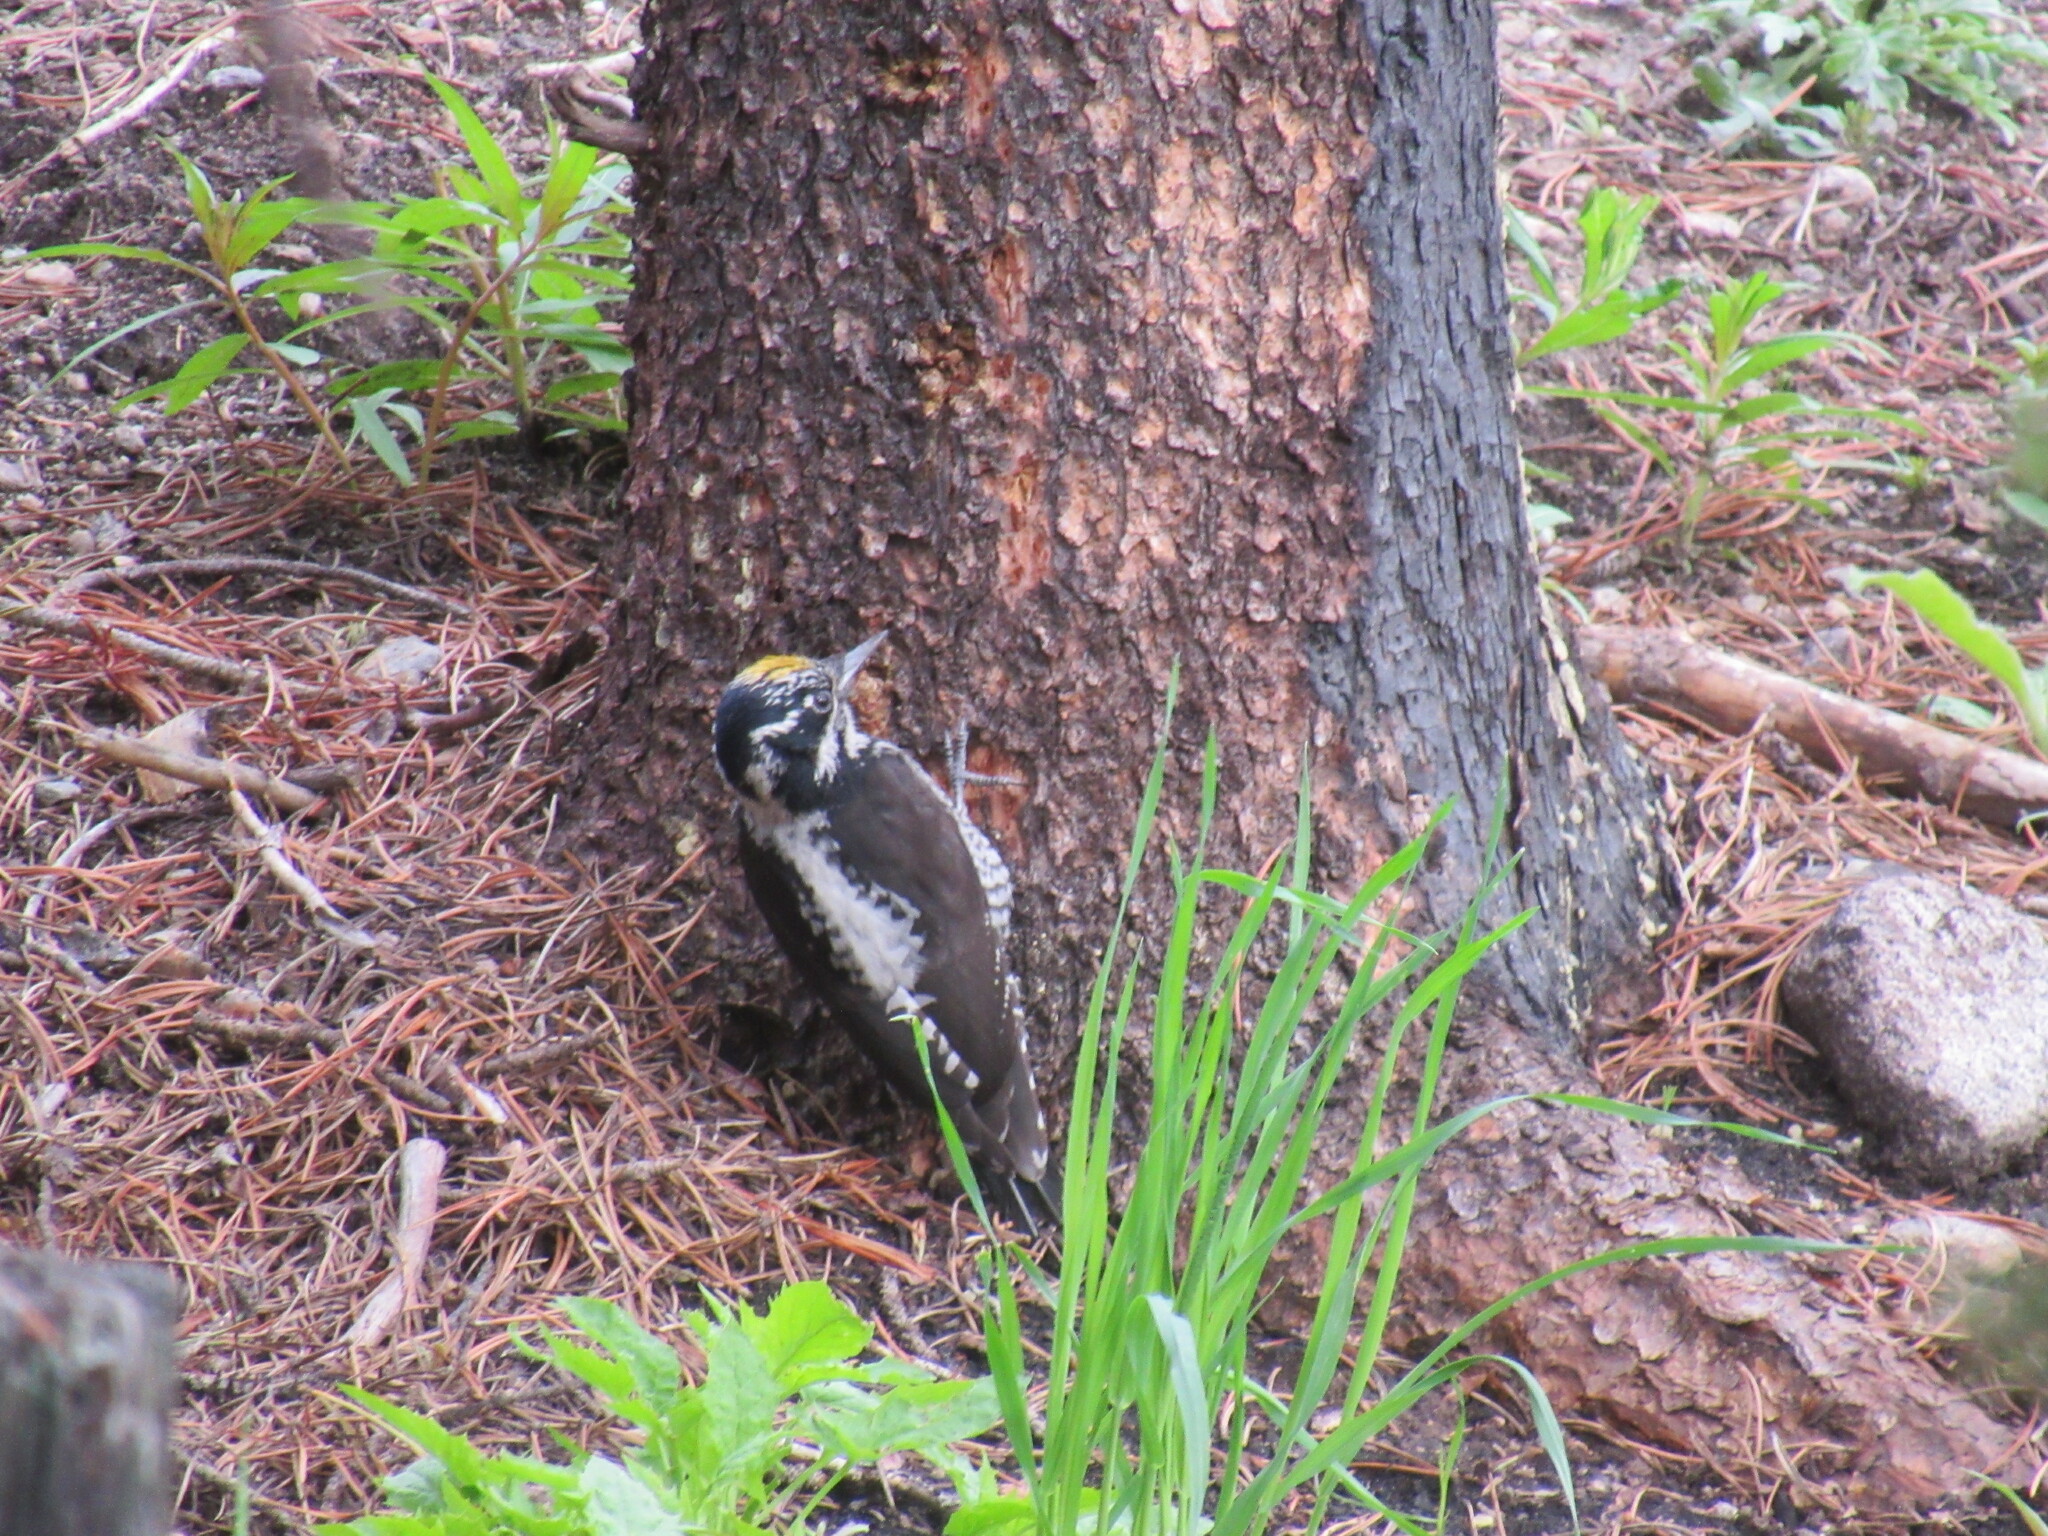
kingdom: Animalia
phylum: Chordata
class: Aves
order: Piciformes
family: Picidae
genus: Picoides
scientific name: Picoides dorsalis
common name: American three-toed woodpecker
